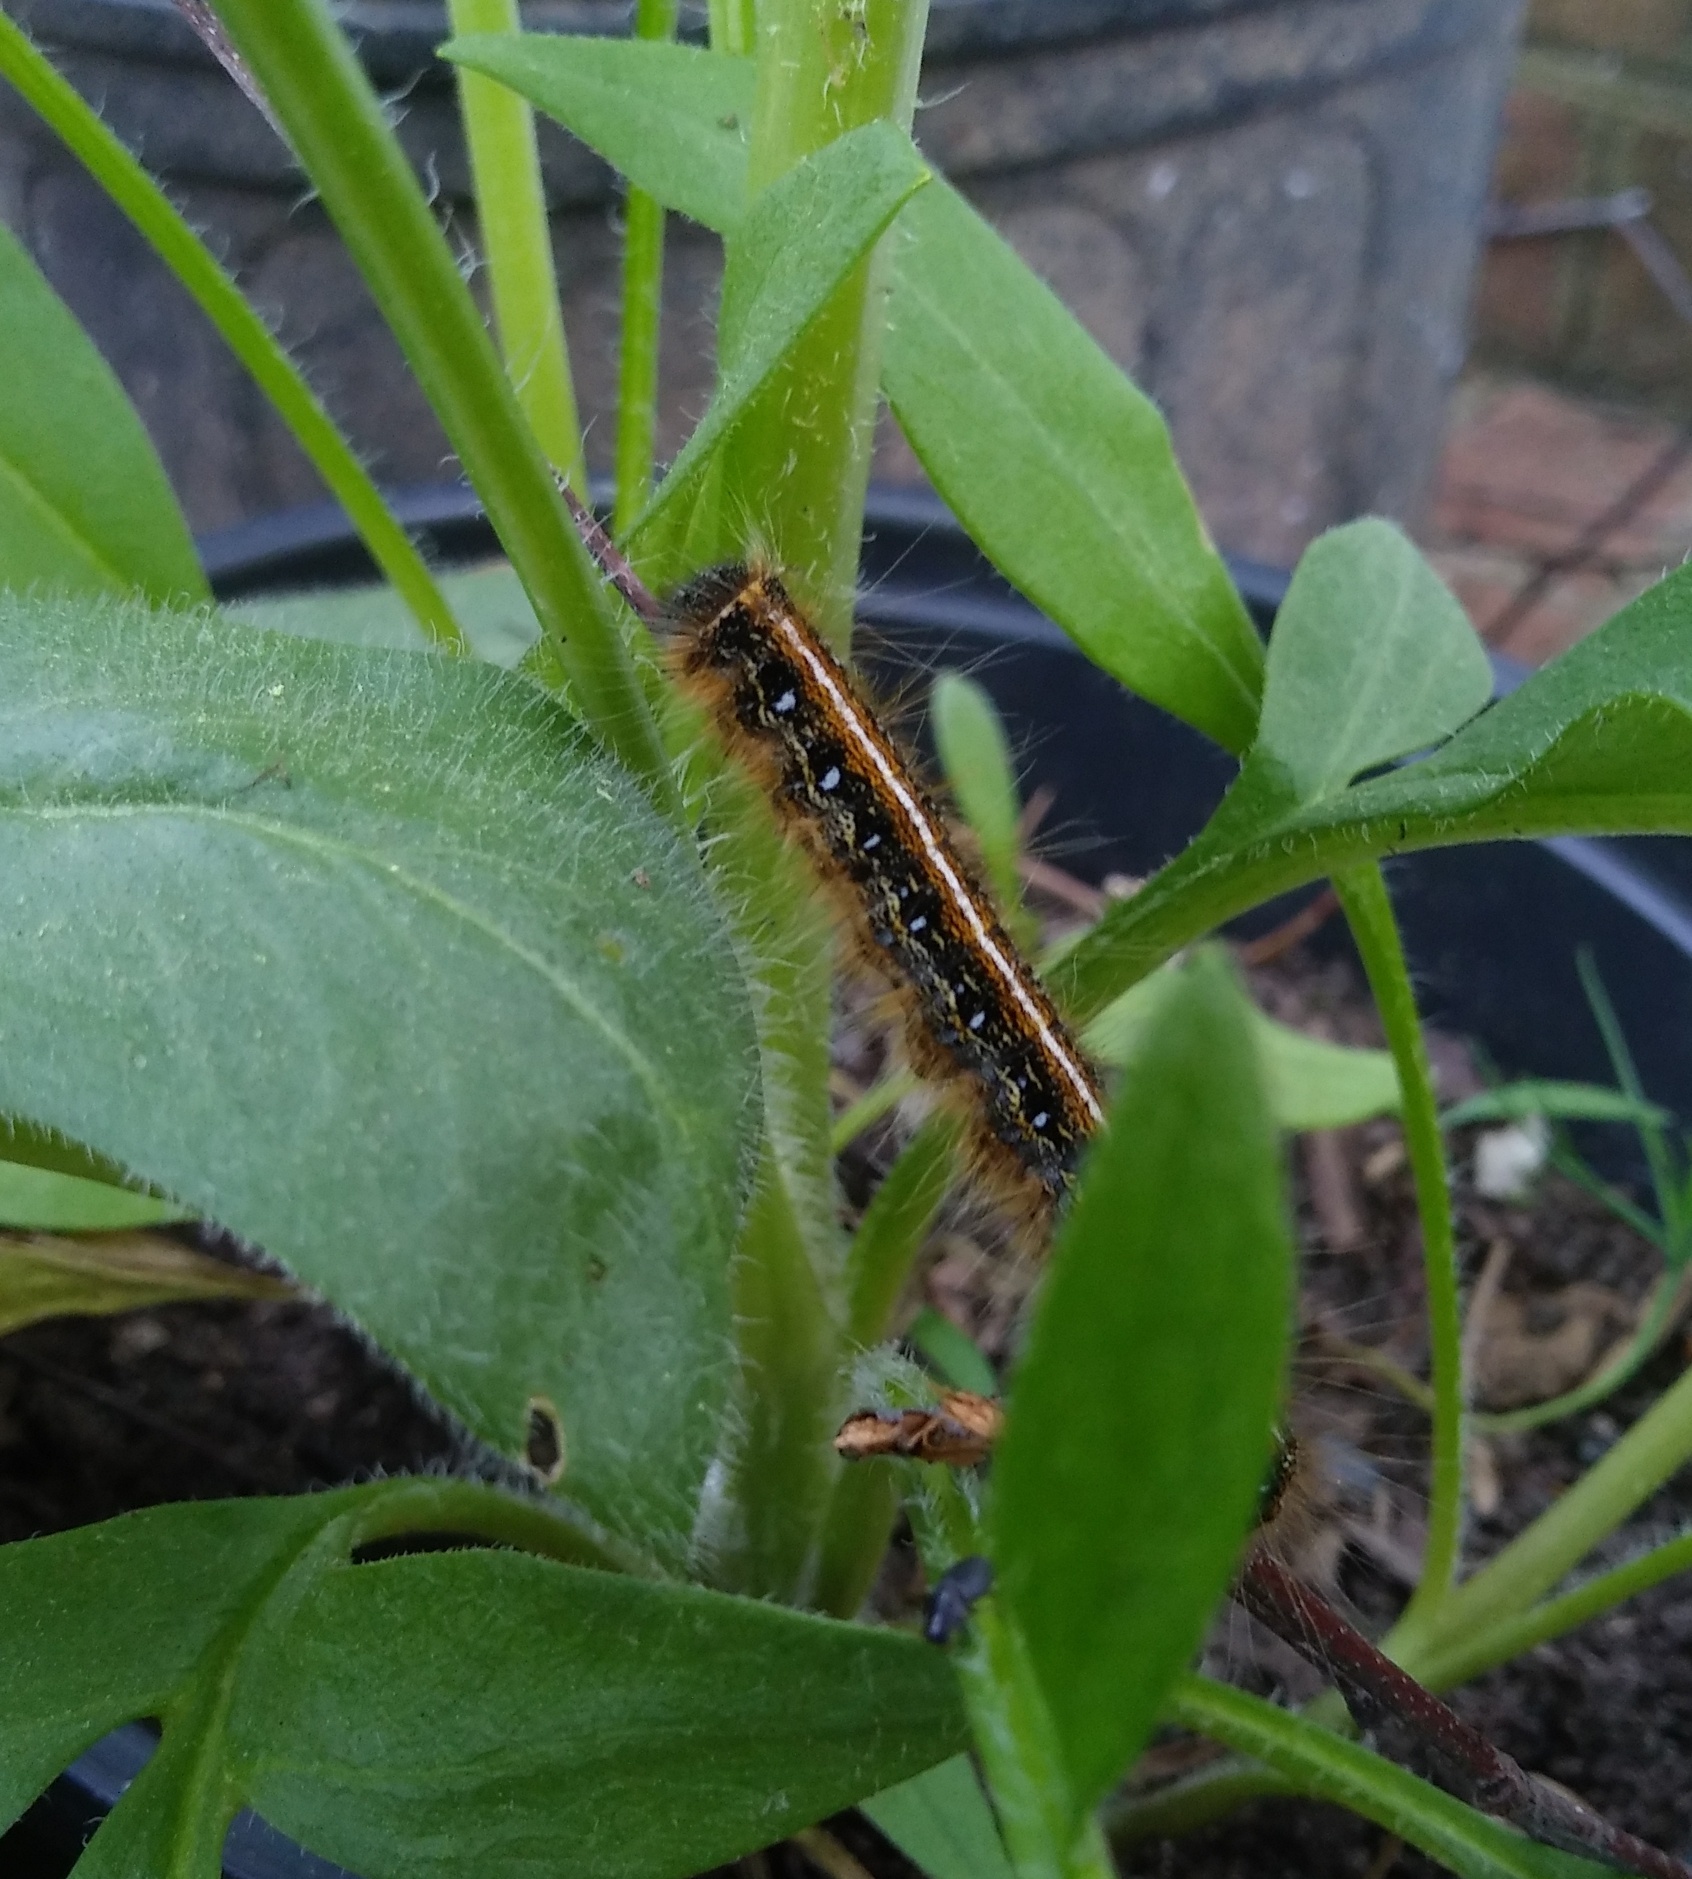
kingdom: Animalia
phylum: Arthropoda
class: Insecta
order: Lepidoptera
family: Lasiocampidae
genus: Malacosoma
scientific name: Malacosoma americana
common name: Eastern tent caterpillar moth
